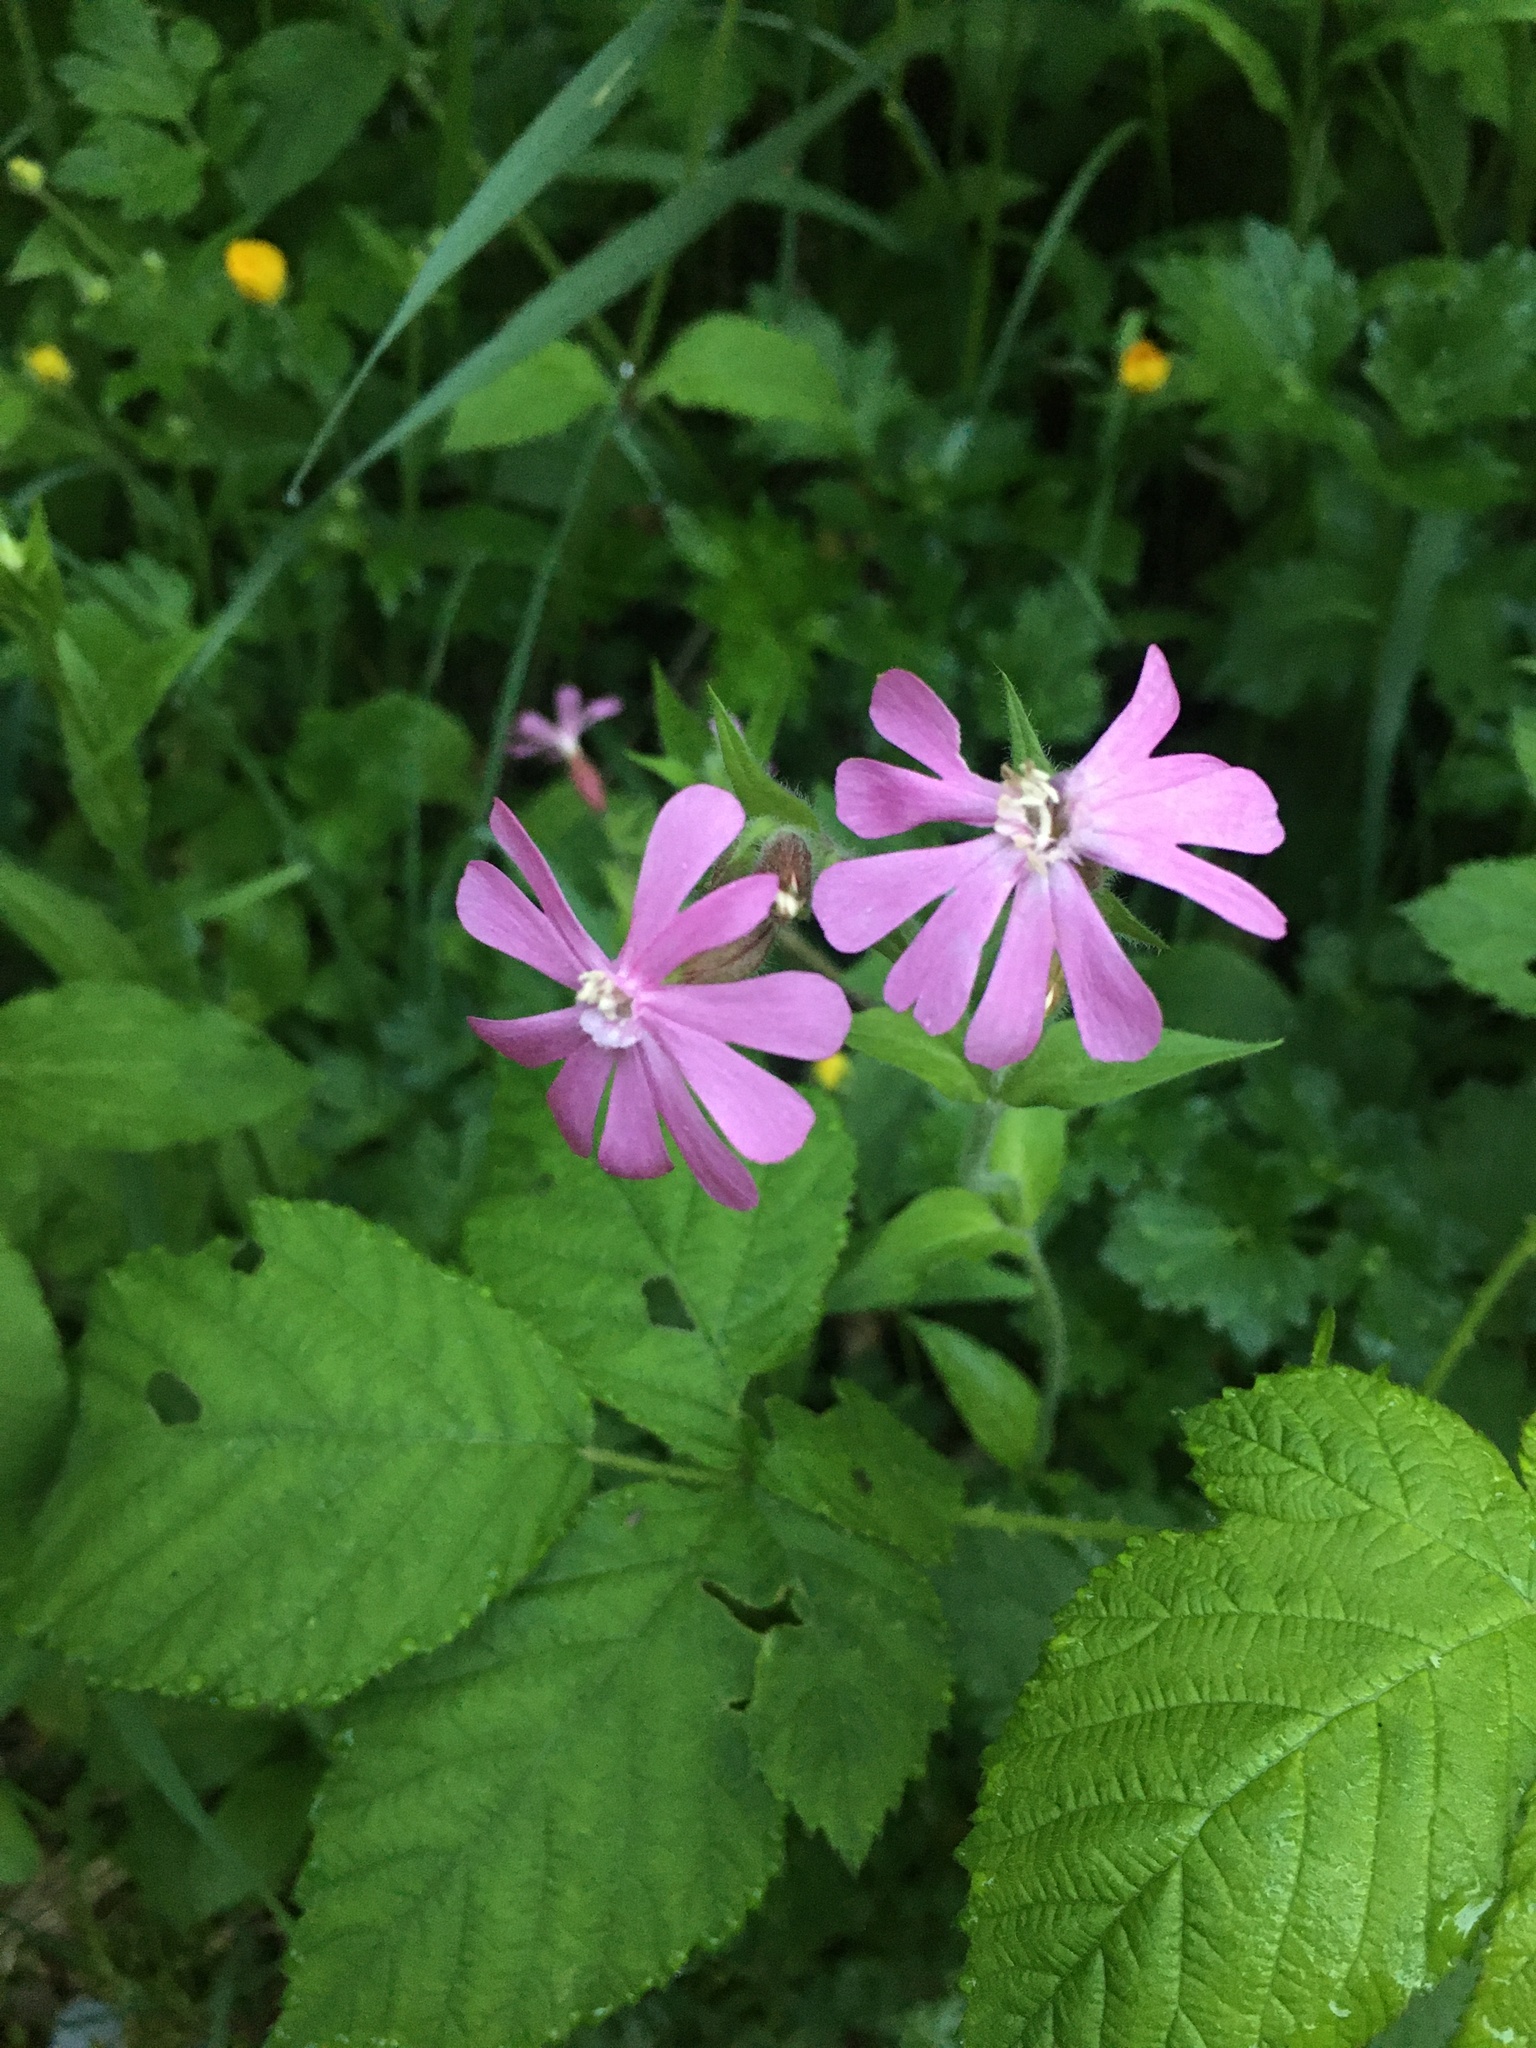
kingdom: Plantae
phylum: Tracheophyta
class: Magnoliopsida
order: Caryophyllales
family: Caryophyllaceae
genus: Silene
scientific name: Silene dioica
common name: Red campion
